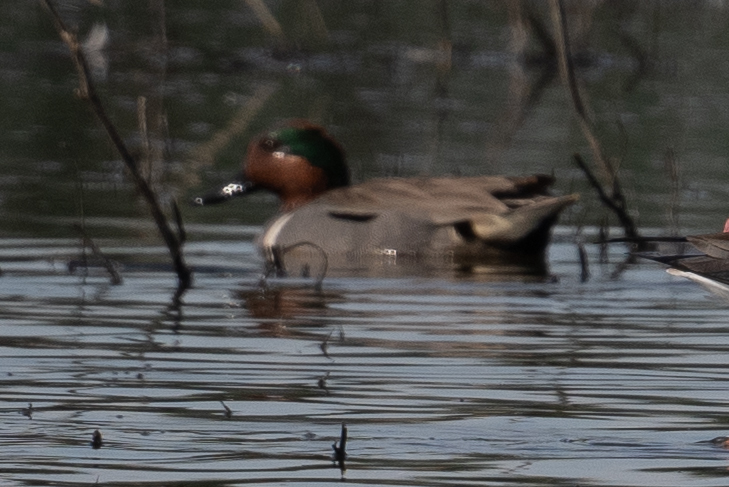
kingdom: Animalia
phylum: Chordata
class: Aves
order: Anseriformes
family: Anatidae
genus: Anas
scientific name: Anas crecca
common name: Eurasian teal
